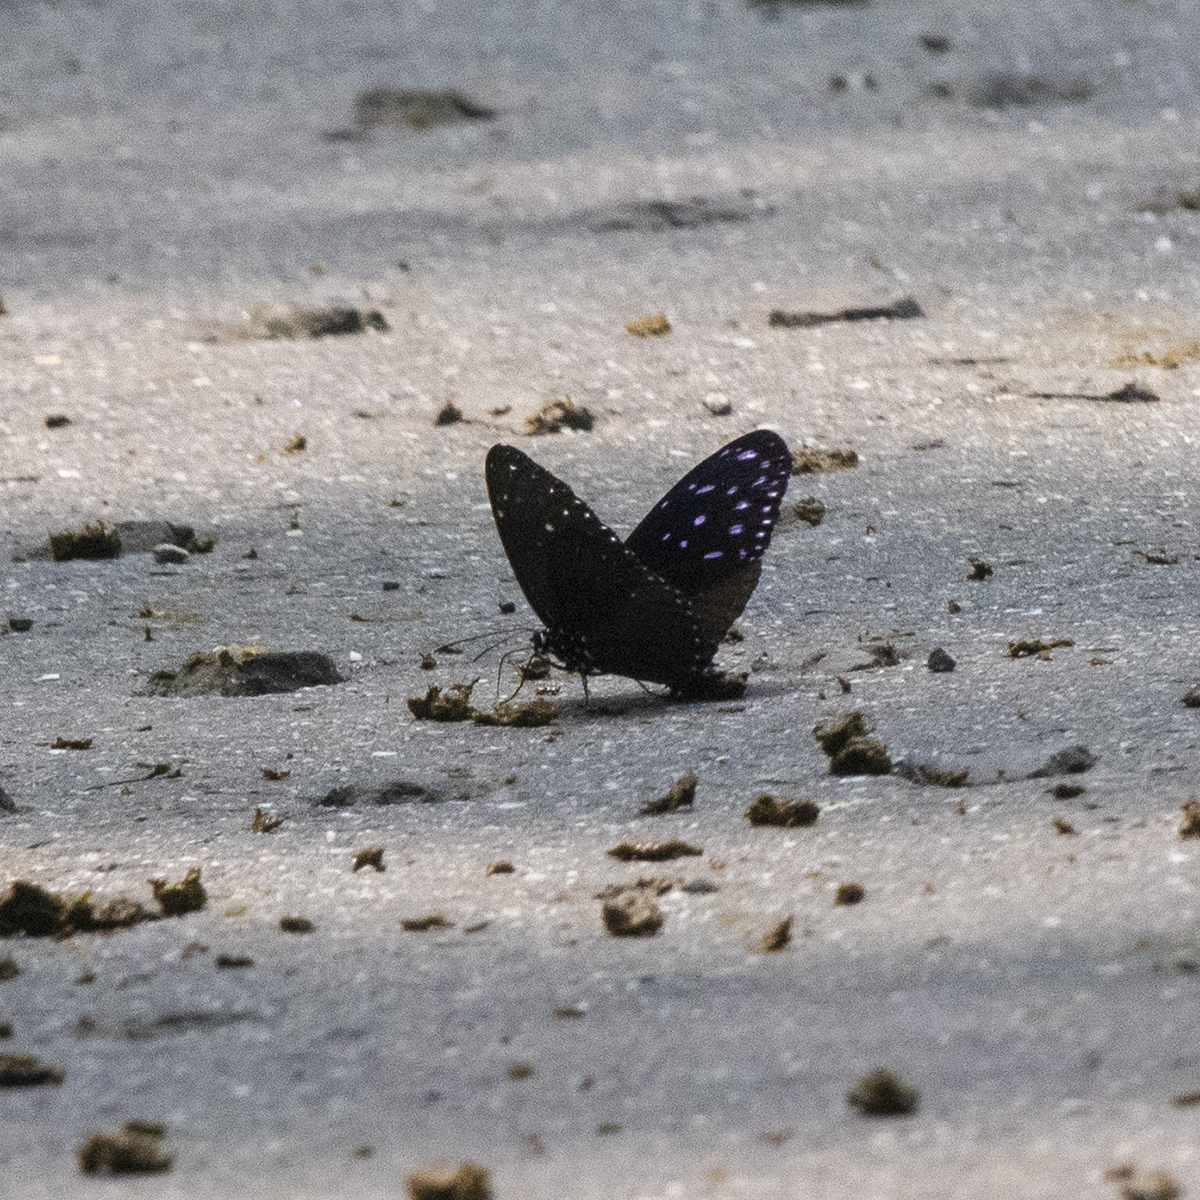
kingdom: Animalia
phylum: Arthropoda
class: Insecta
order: Lepidoptera
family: Nymphalidae
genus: Euploea
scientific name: Euploea mulciber
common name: Striped blue crow butterfly
